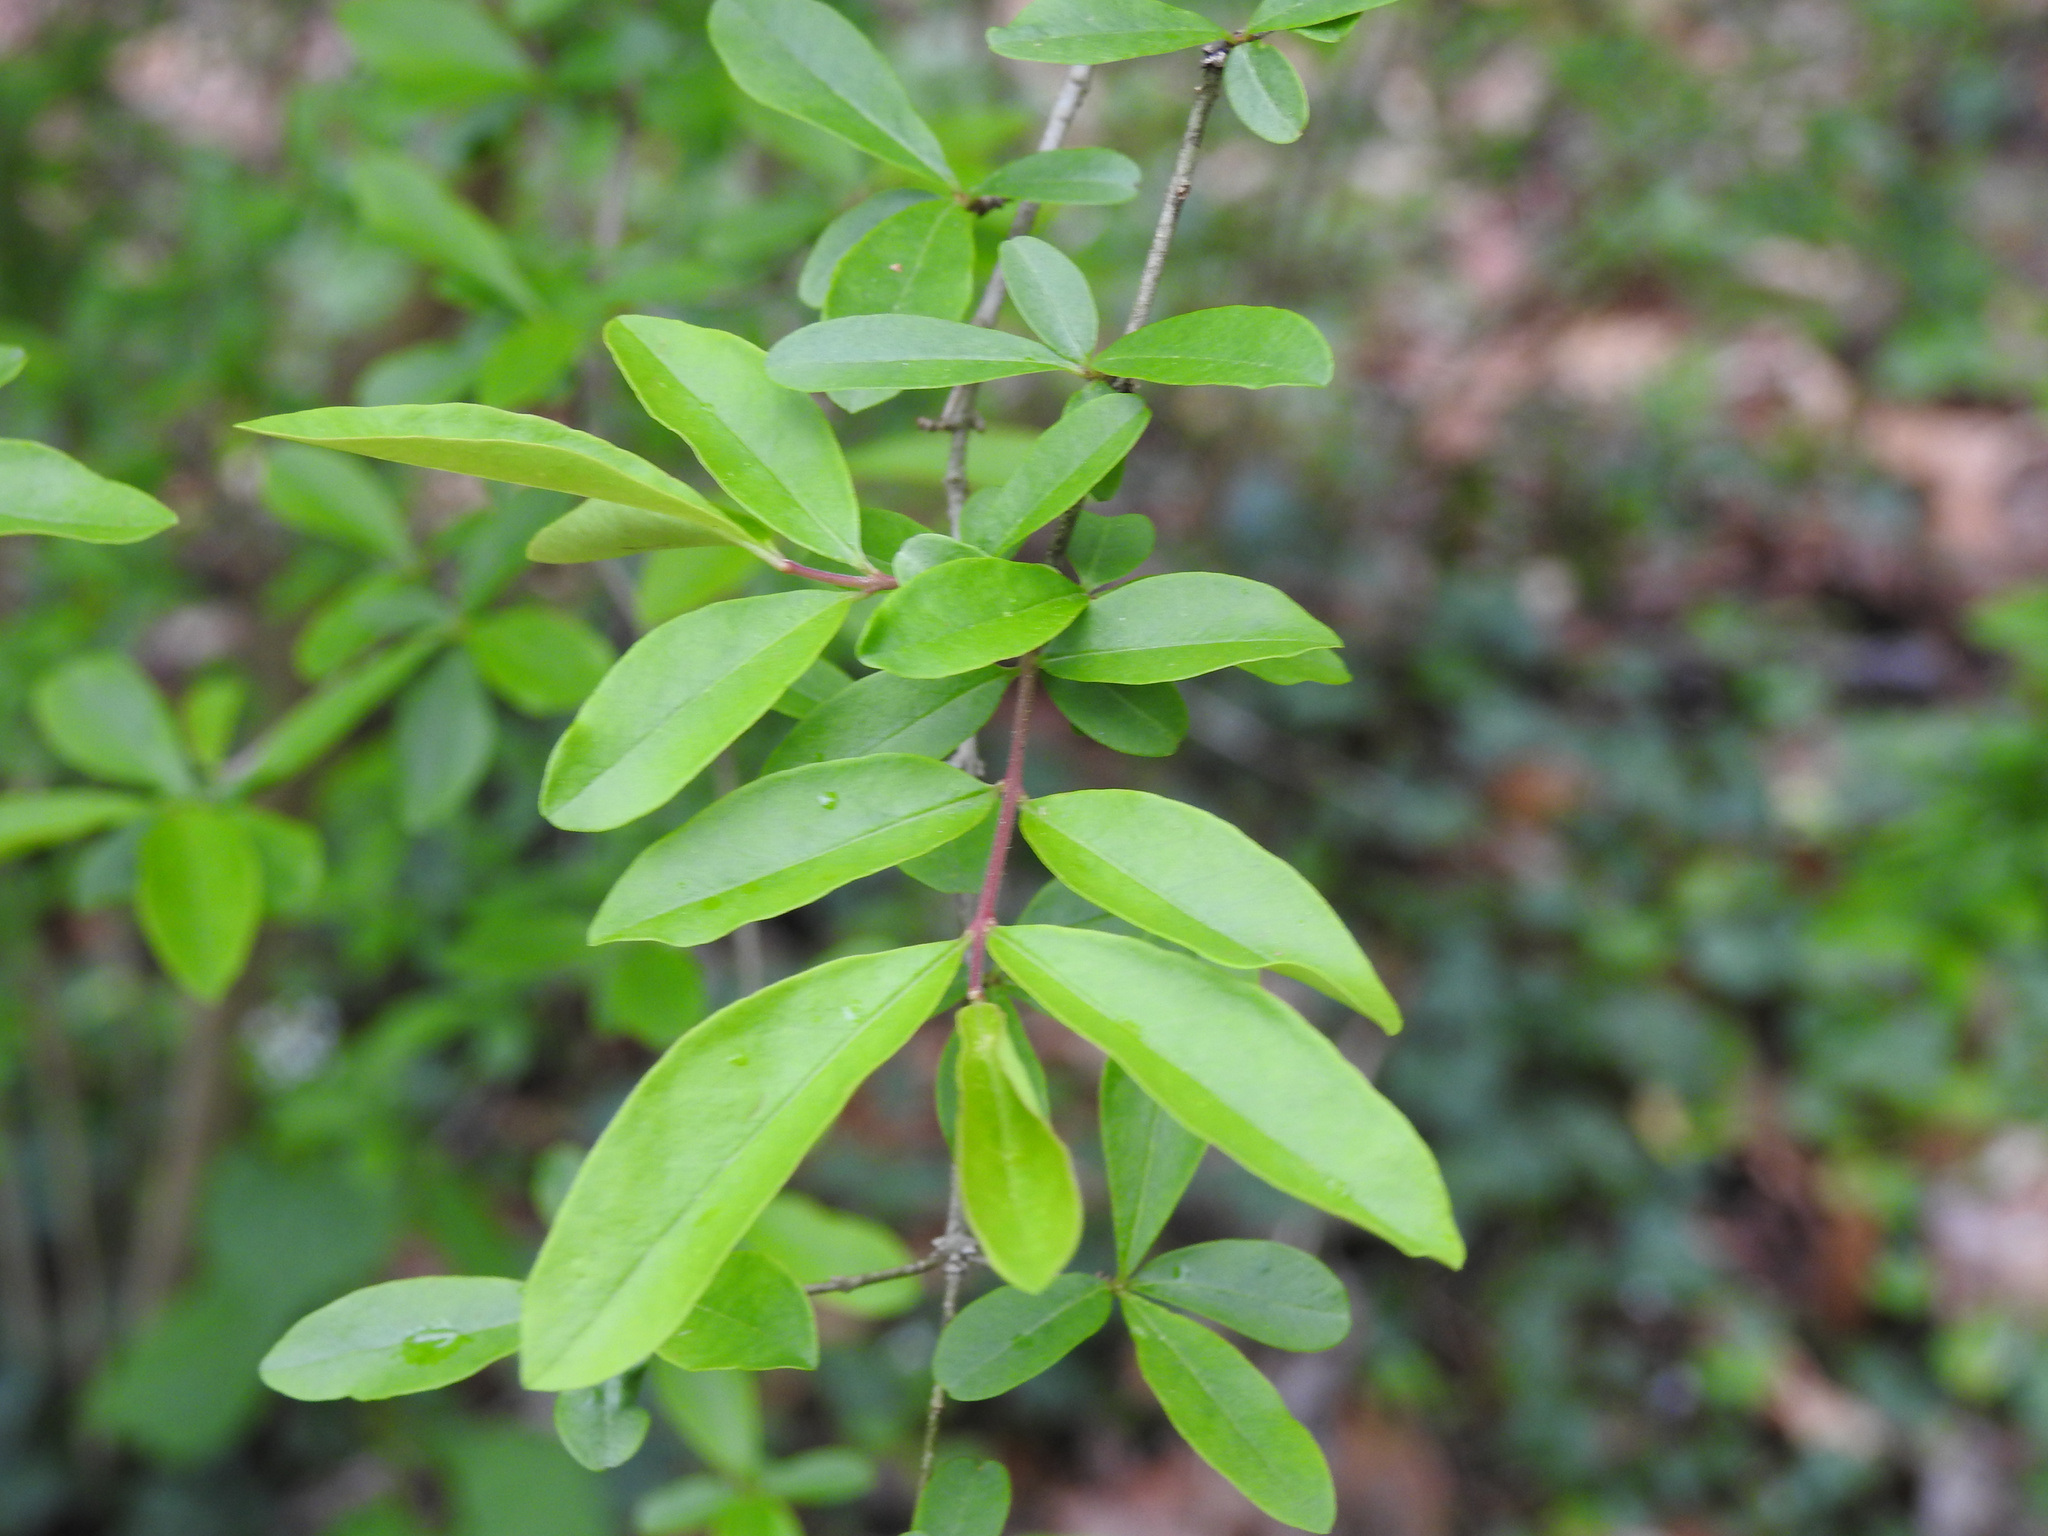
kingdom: Plantae
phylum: Tracheophyta
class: Magnoliopsida
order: Lamiales
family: Oleaceae
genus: Ligustrum
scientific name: Ligustrum obtusifolium
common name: Border privet
